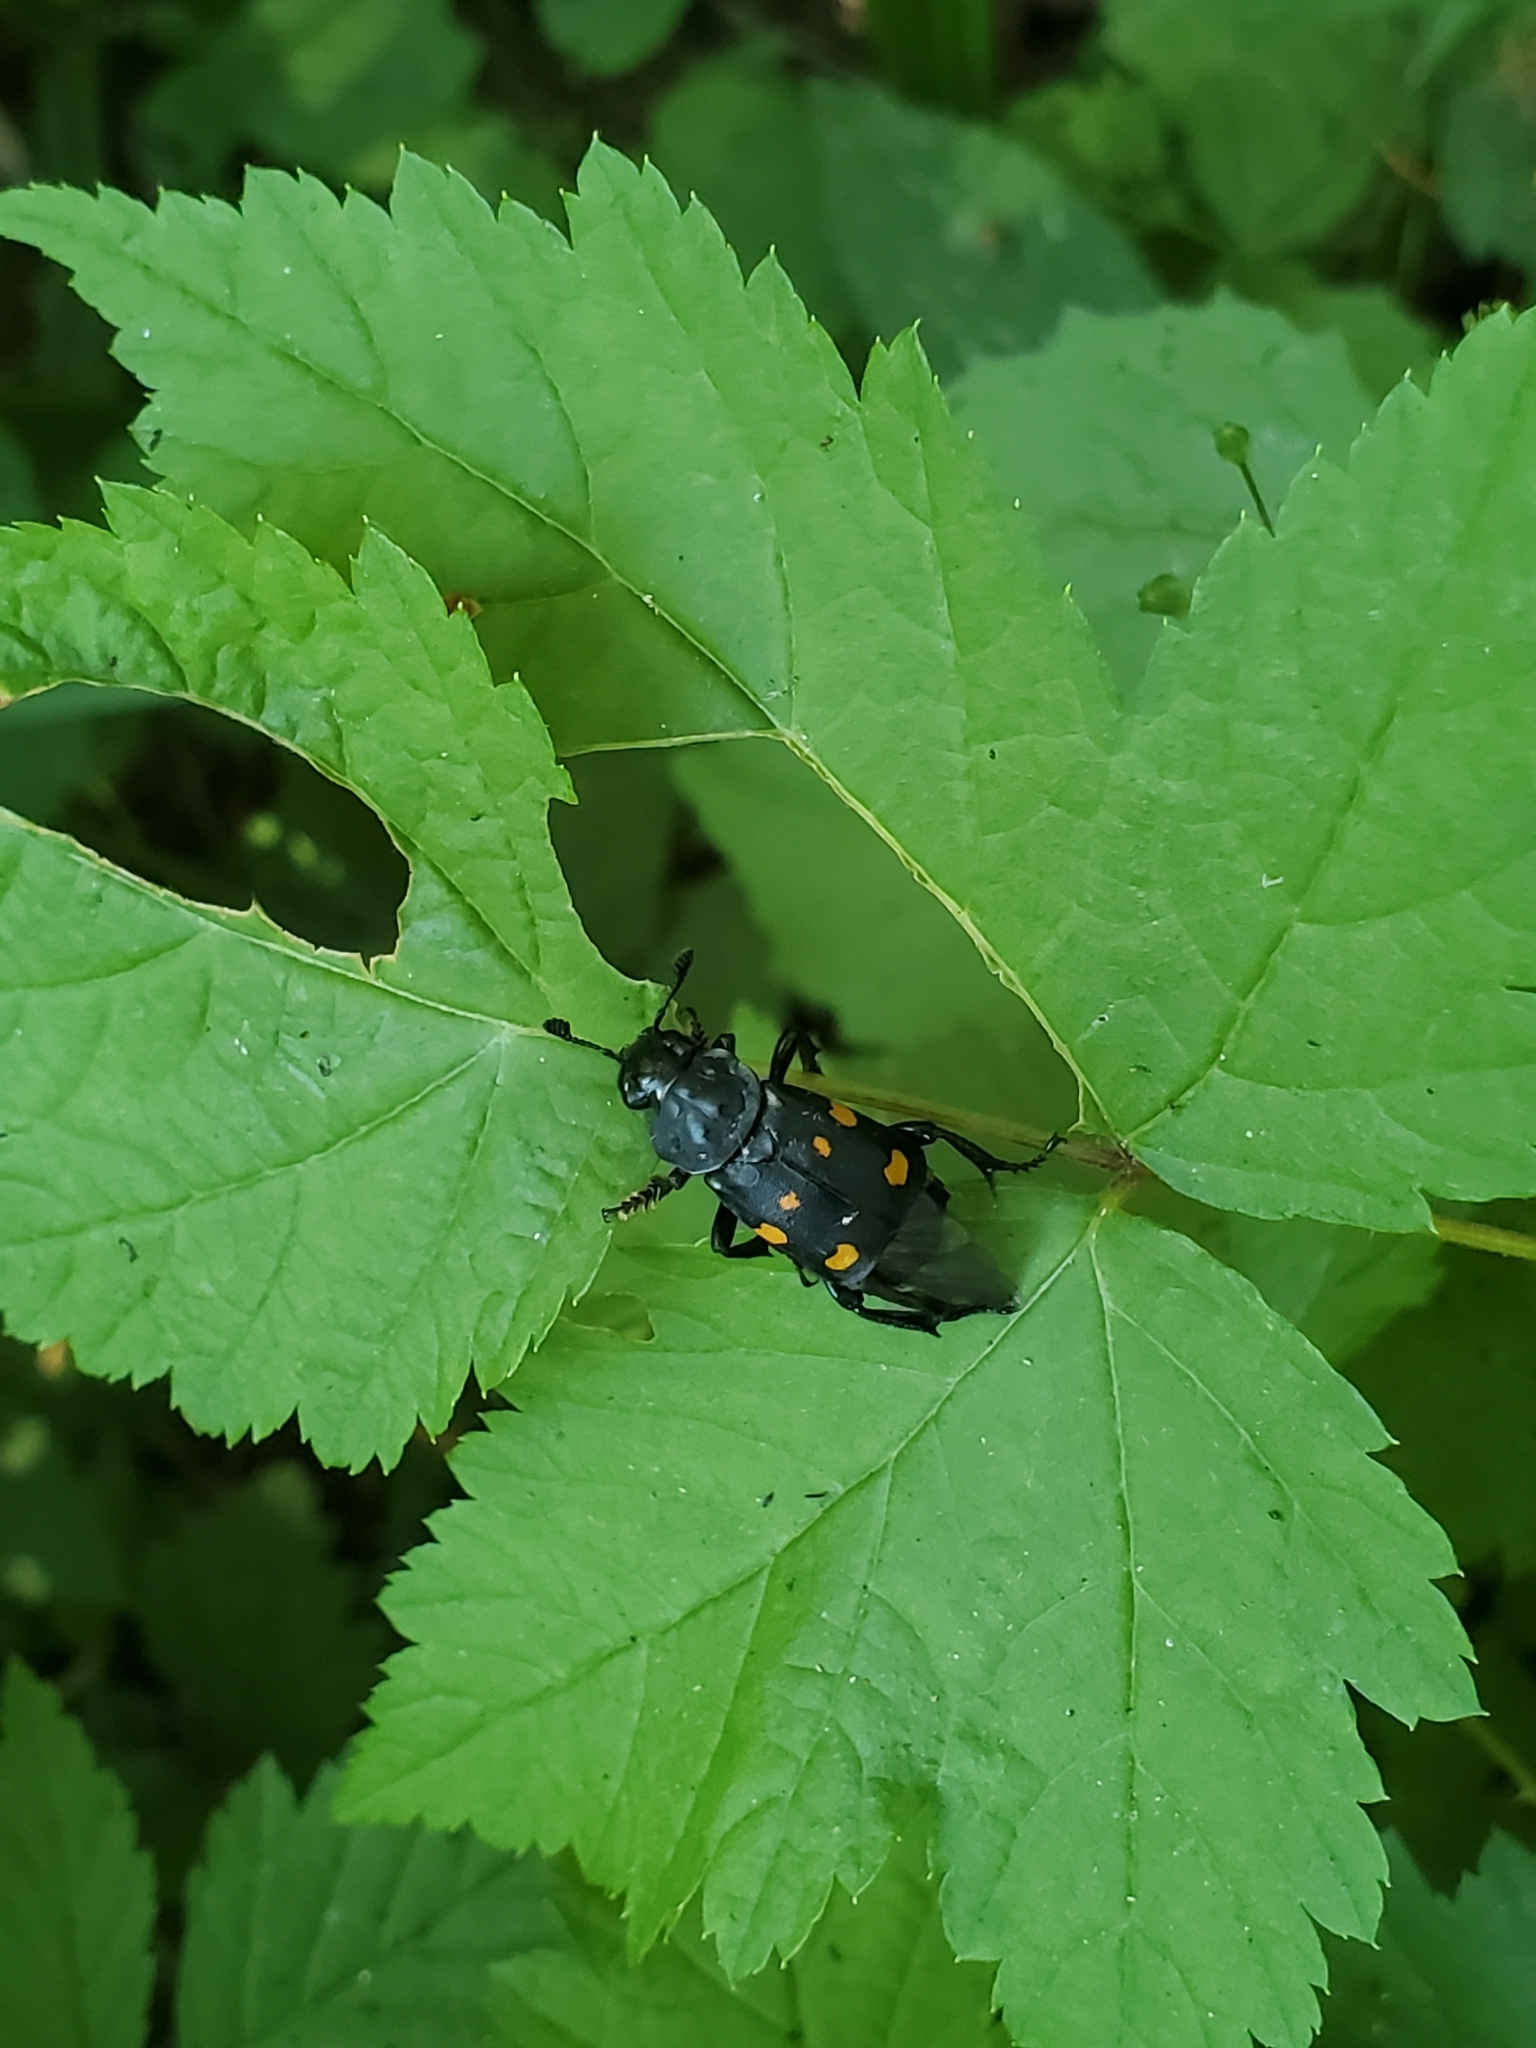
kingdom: Animalia
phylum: Arthropoda
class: Insecta
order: Coleoptera
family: Staphylinidae
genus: Nicrophorus
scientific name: Nicrophorus defodiens
